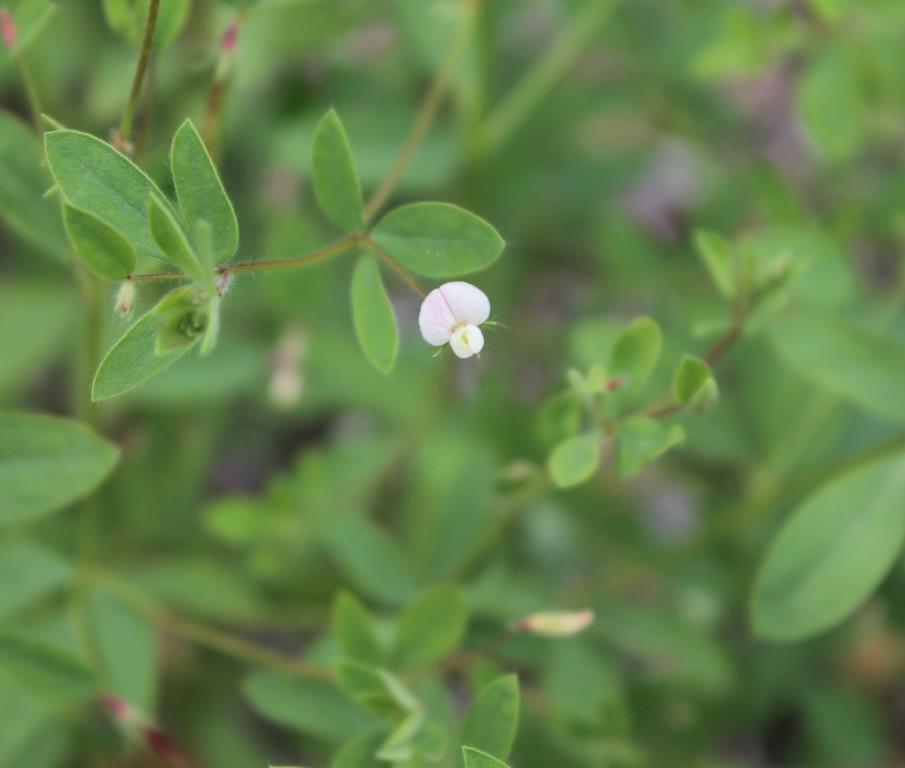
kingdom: Plantae
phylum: Tracheophyta
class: Magnoliopsida
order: Fabales
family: Fabaceae
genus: Acmispon
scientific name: Acmispon americanus
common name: American bird's-foot trefoil
